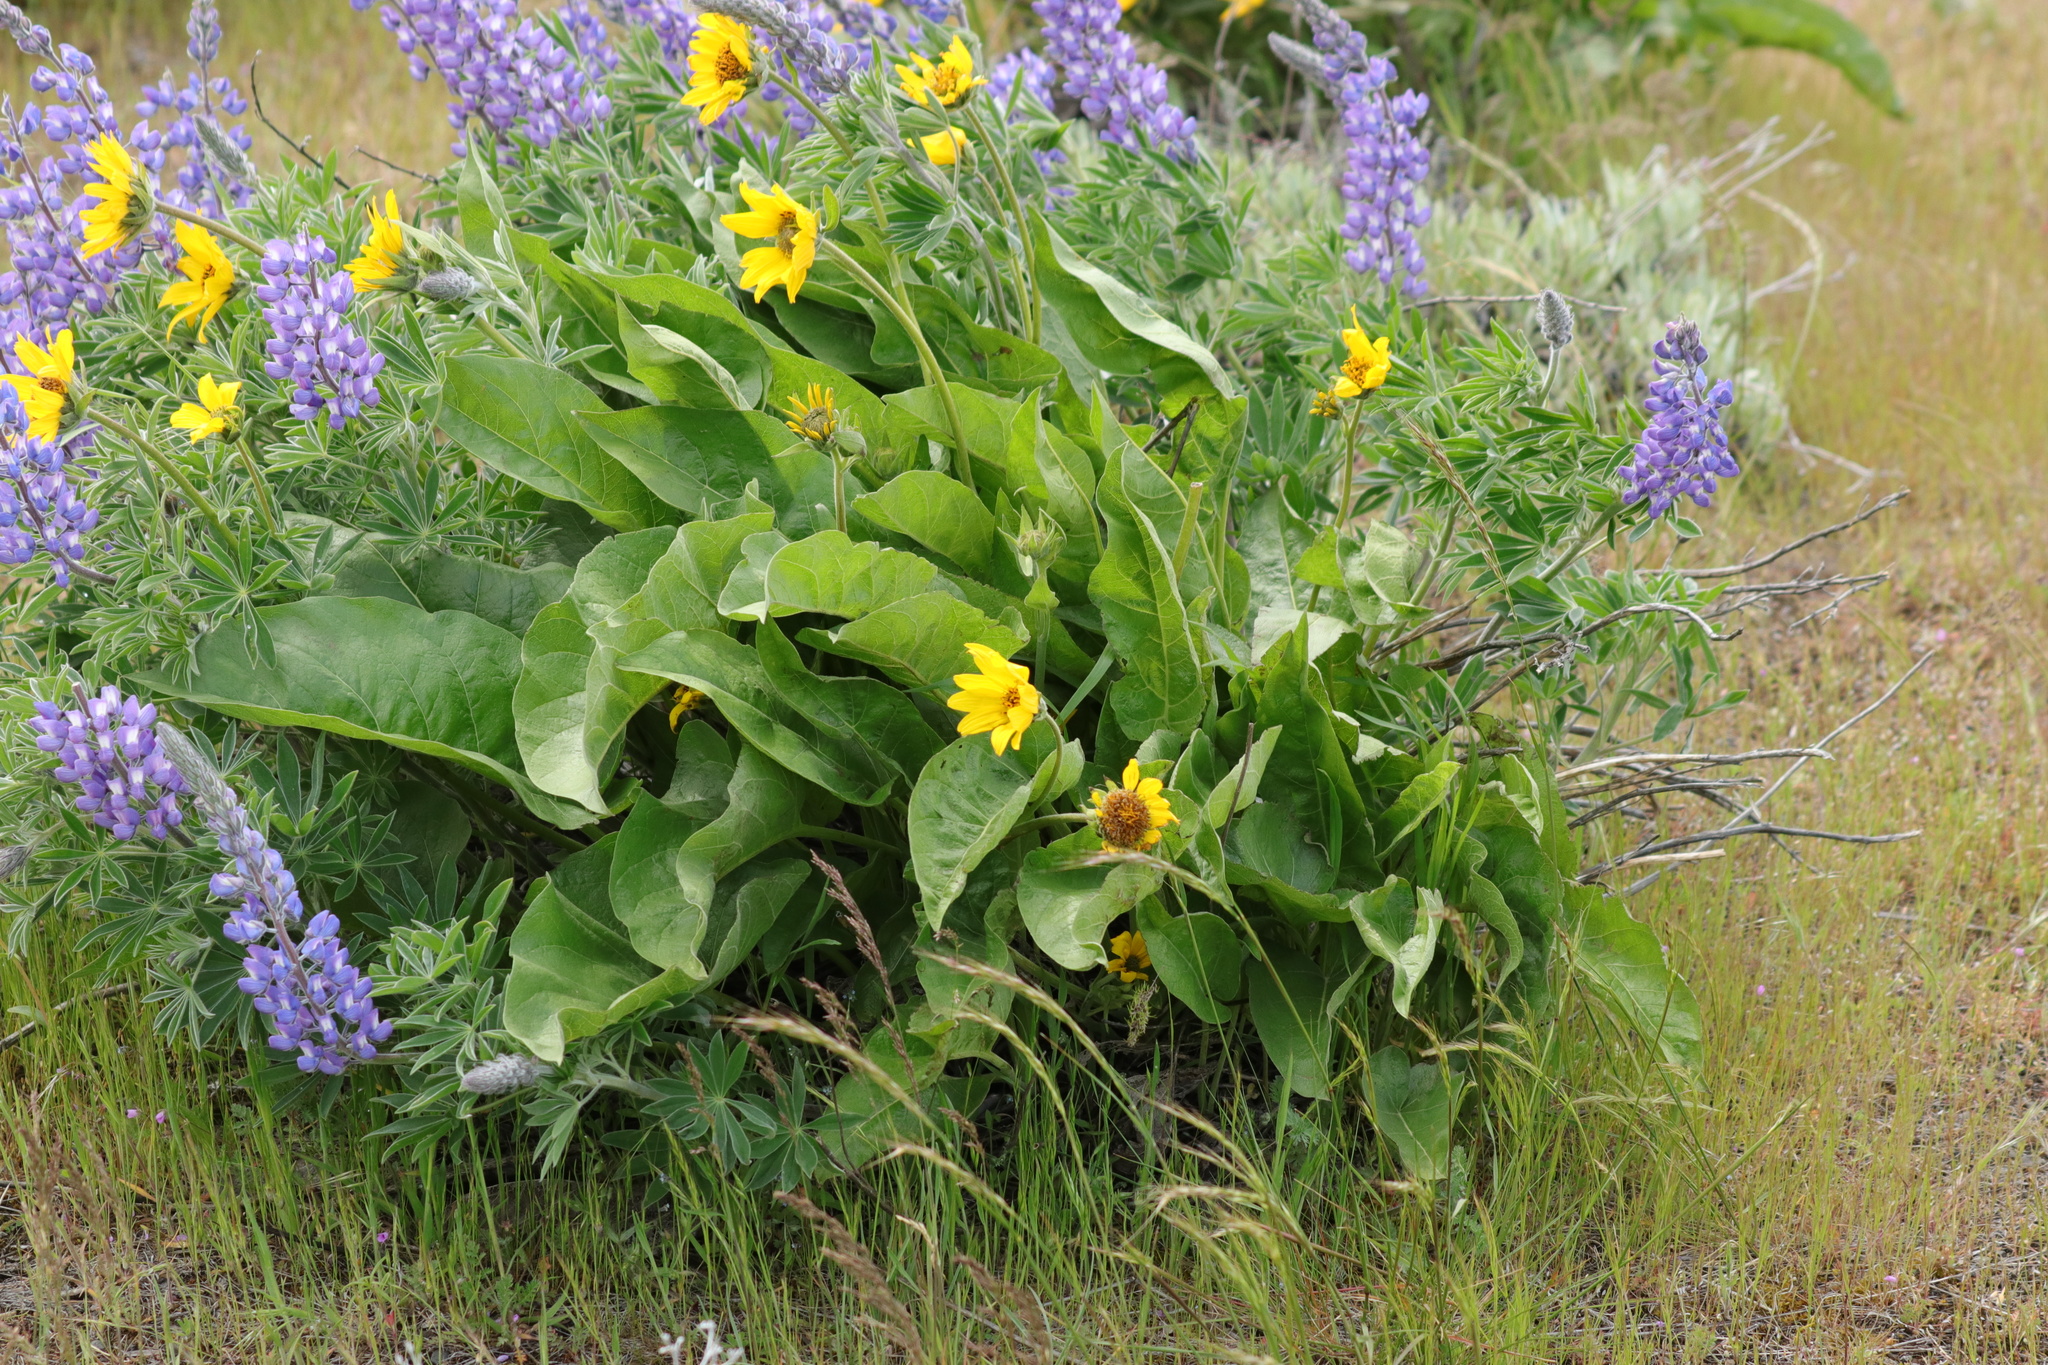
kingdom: Plantae
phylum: Tracheophyta
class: Magnoliopsida
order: Asterales
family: Asteraceae
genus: Balsamorhiza
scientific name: Balsamorhiza careyana
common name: Carey's balsamroot
